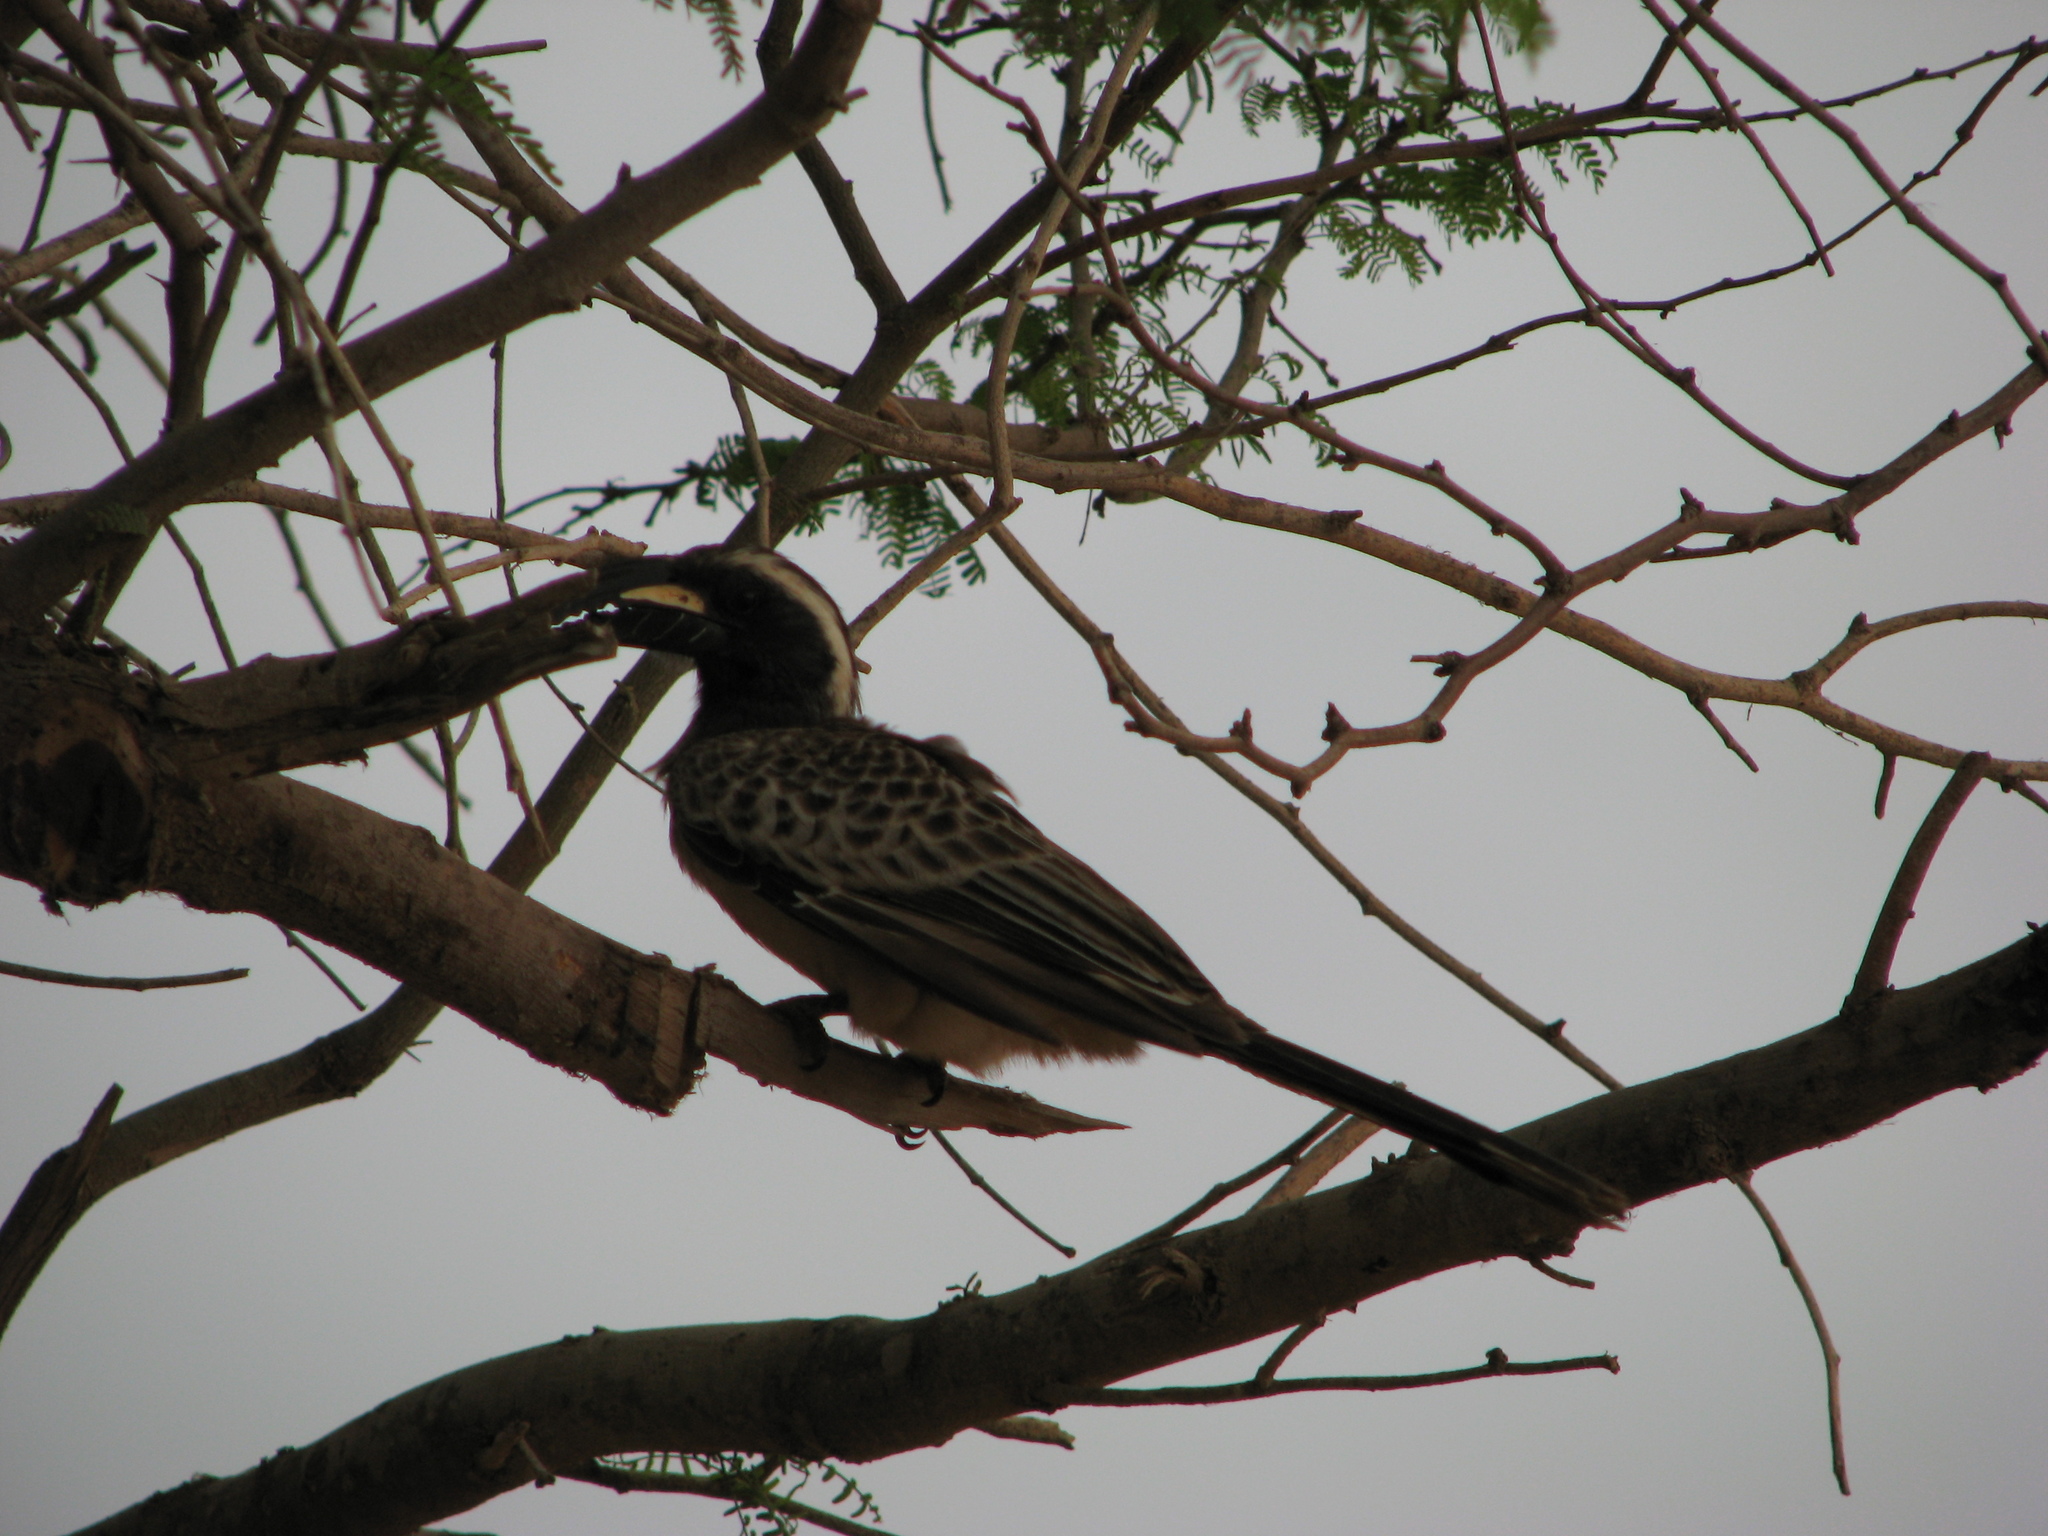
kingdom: Animalia
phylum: Chordata
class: Aves
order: Bucerotiformes
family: Bucerotidae
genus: Lophoceros
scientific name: Lophoceros nasutus
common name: African grey hornbill
